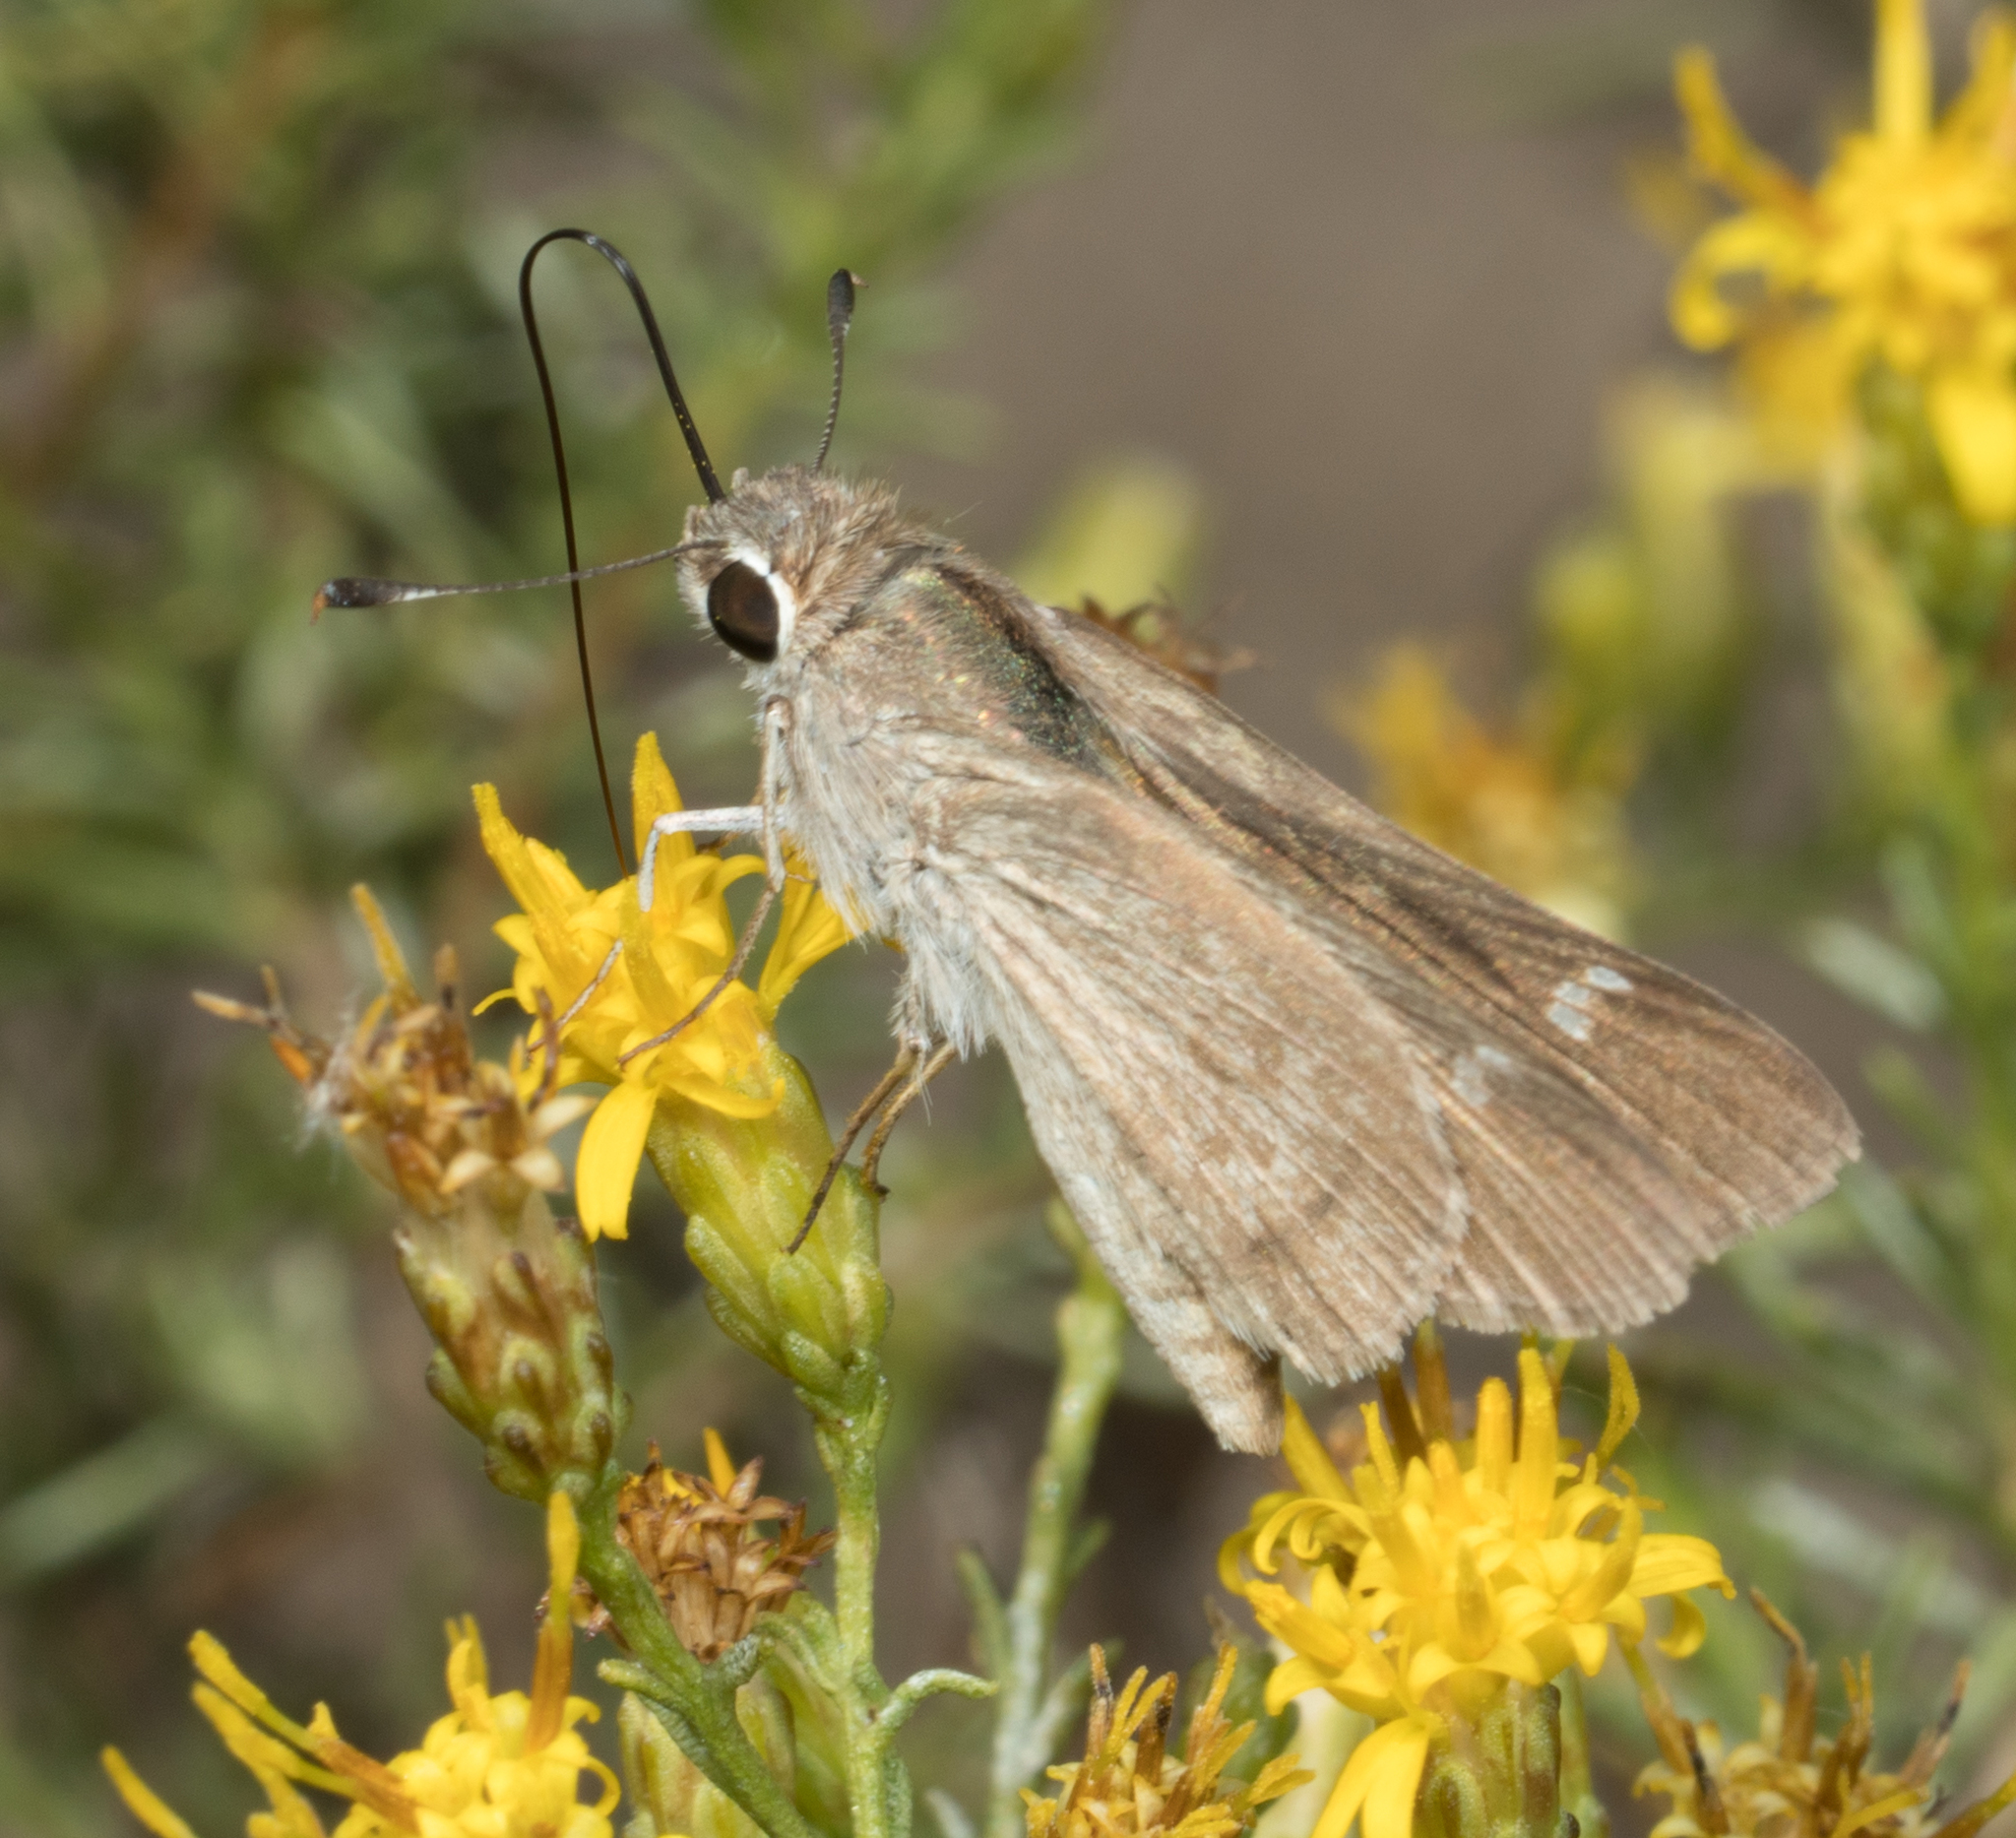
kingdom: Animalia
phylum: Arthropoda
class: Insecta
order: Lepidoptera
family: Hesperiidae
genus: Lerodea
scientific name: Lerodea eufala
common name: Eufala skipper
